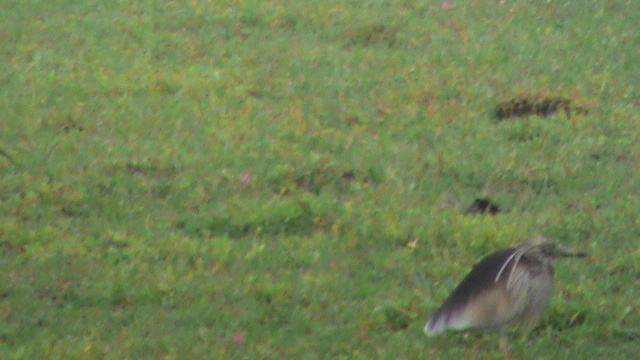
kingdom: Animalia
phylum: Chordata
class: Aves
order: Pelecaniformes
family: Ardeidae
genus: Ardeola
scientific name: Ardeola grayii
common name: Indian pond heron
